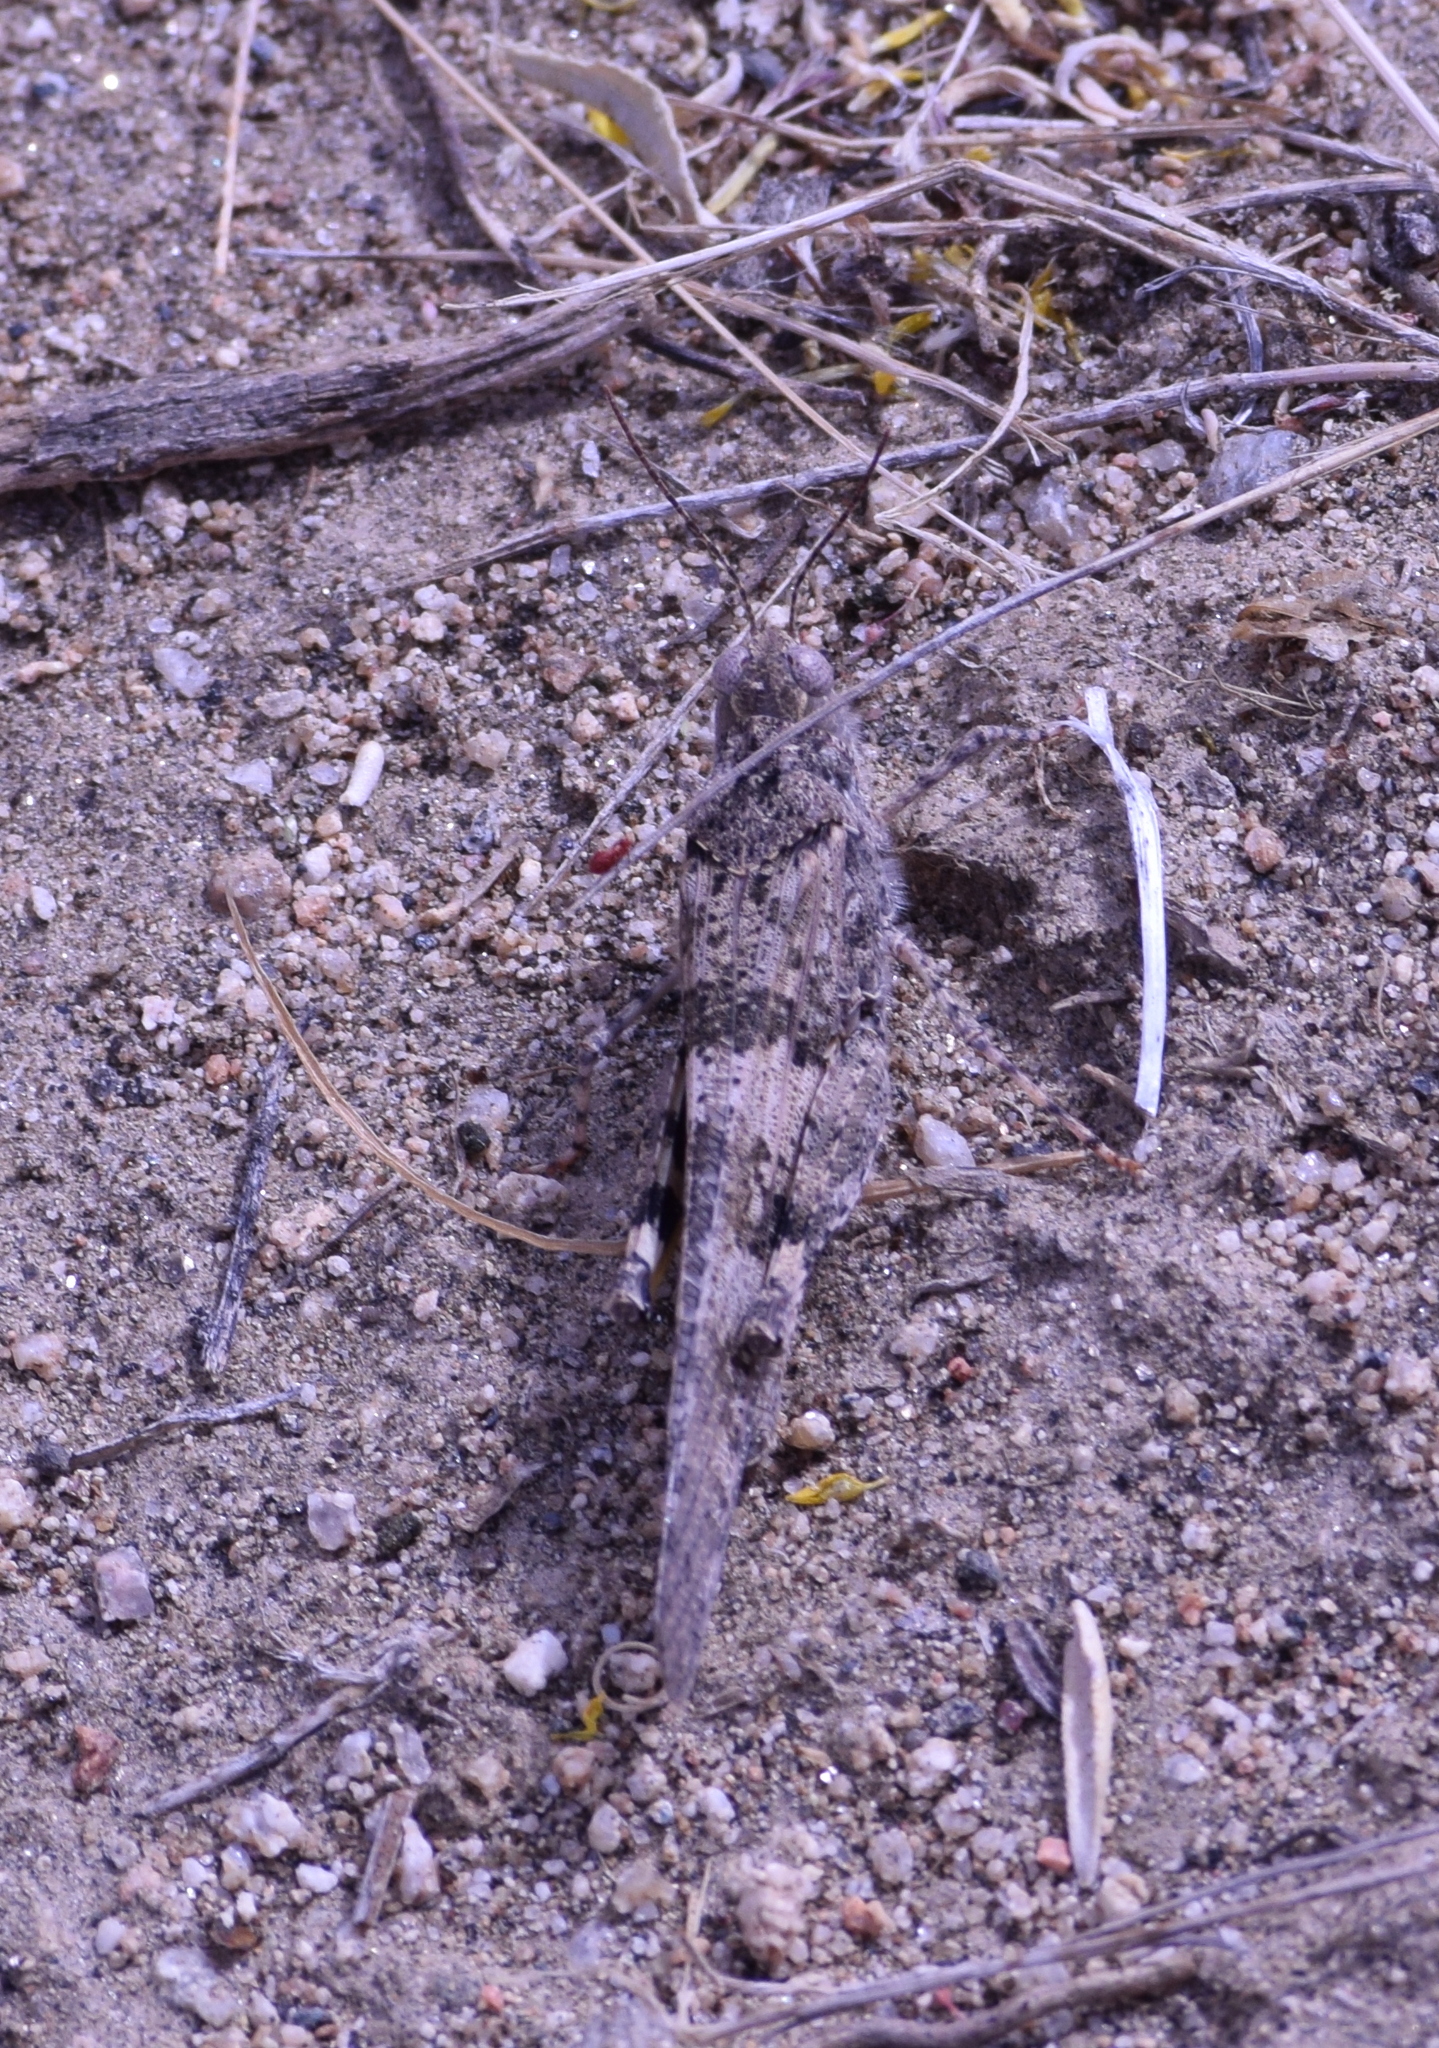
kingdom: Animalia
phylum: Arthropoda
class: Insecta
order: Orthoptera
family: Acrididae
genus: Trimerotropis
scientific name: Trimerotropis pallidipennis
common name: Pallid-winged grasshopper
